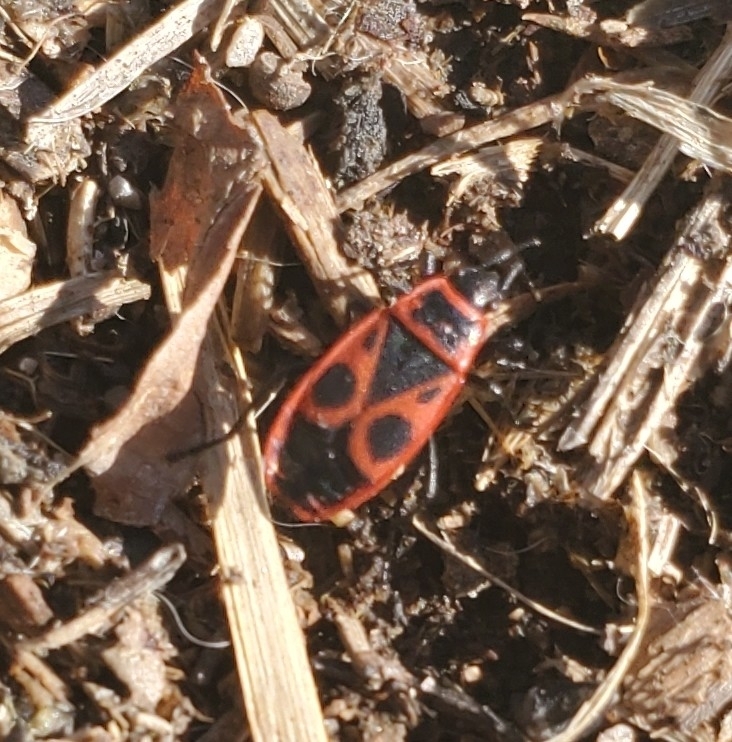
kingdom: Animalia
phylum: Arthropoda
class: Insecta
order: Hemiptera
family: Pyrrhocoridae
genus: Pyrrhocoris
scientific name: Pyrrhocoris apterus
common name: Firebug
